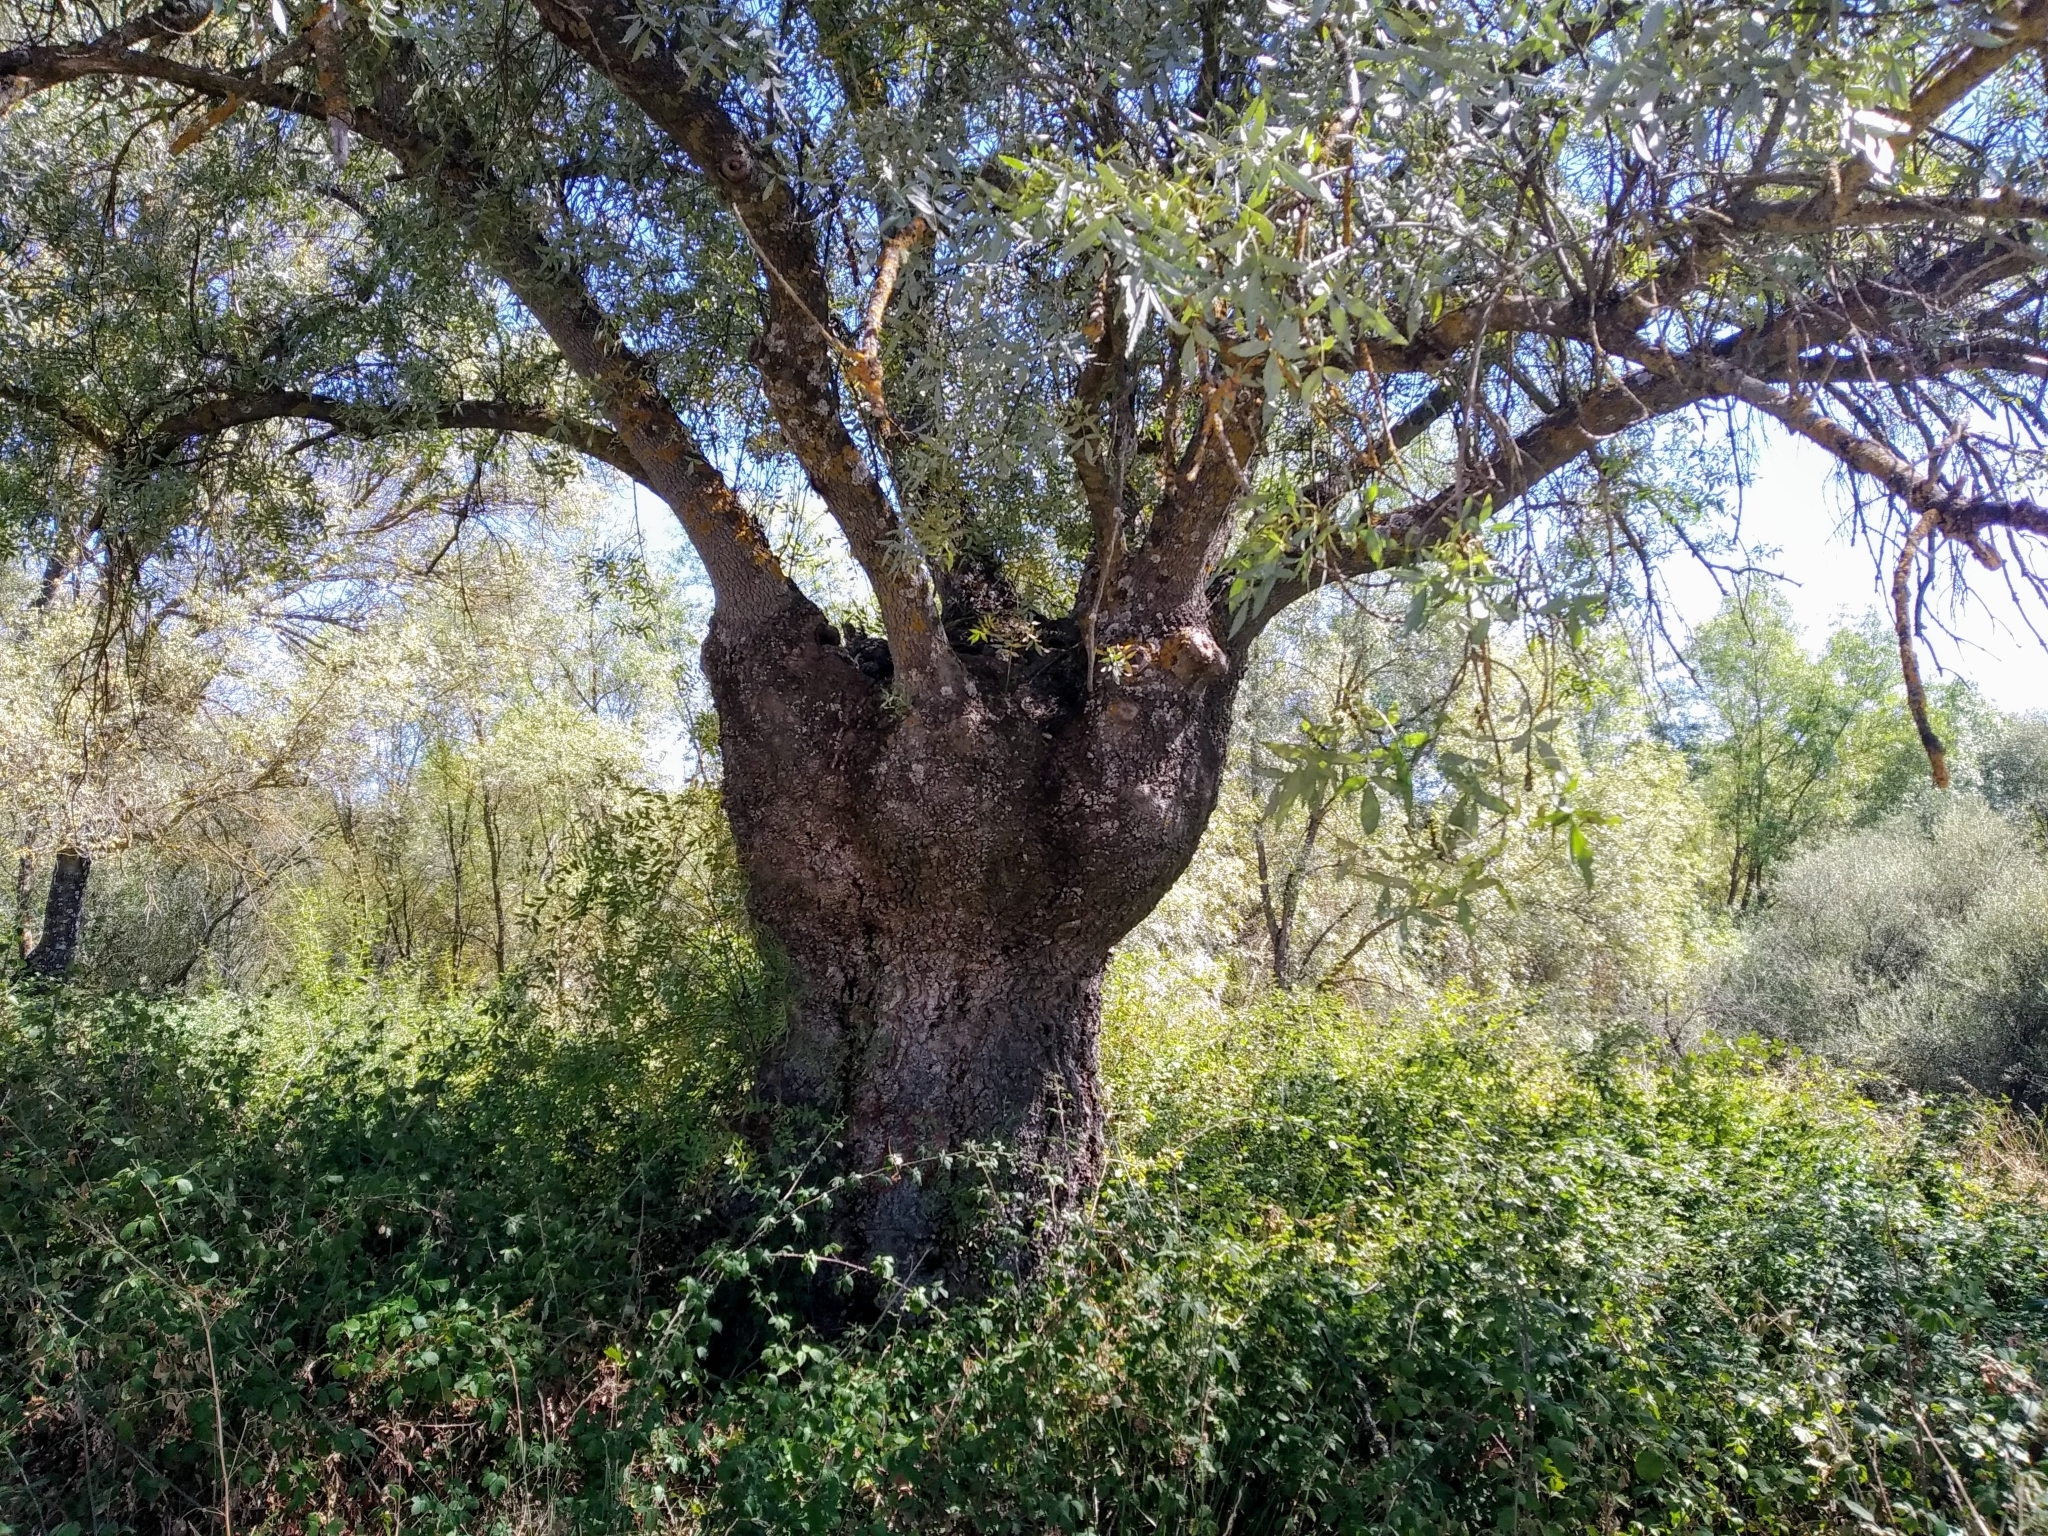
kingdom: Plantae
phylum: Tracheophyta
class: Magnoliopsida
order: Lamiales
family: Oleaceae
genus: Fraxinus
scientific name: Fraxinus angustifolia
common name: Narrow-leafed ash
